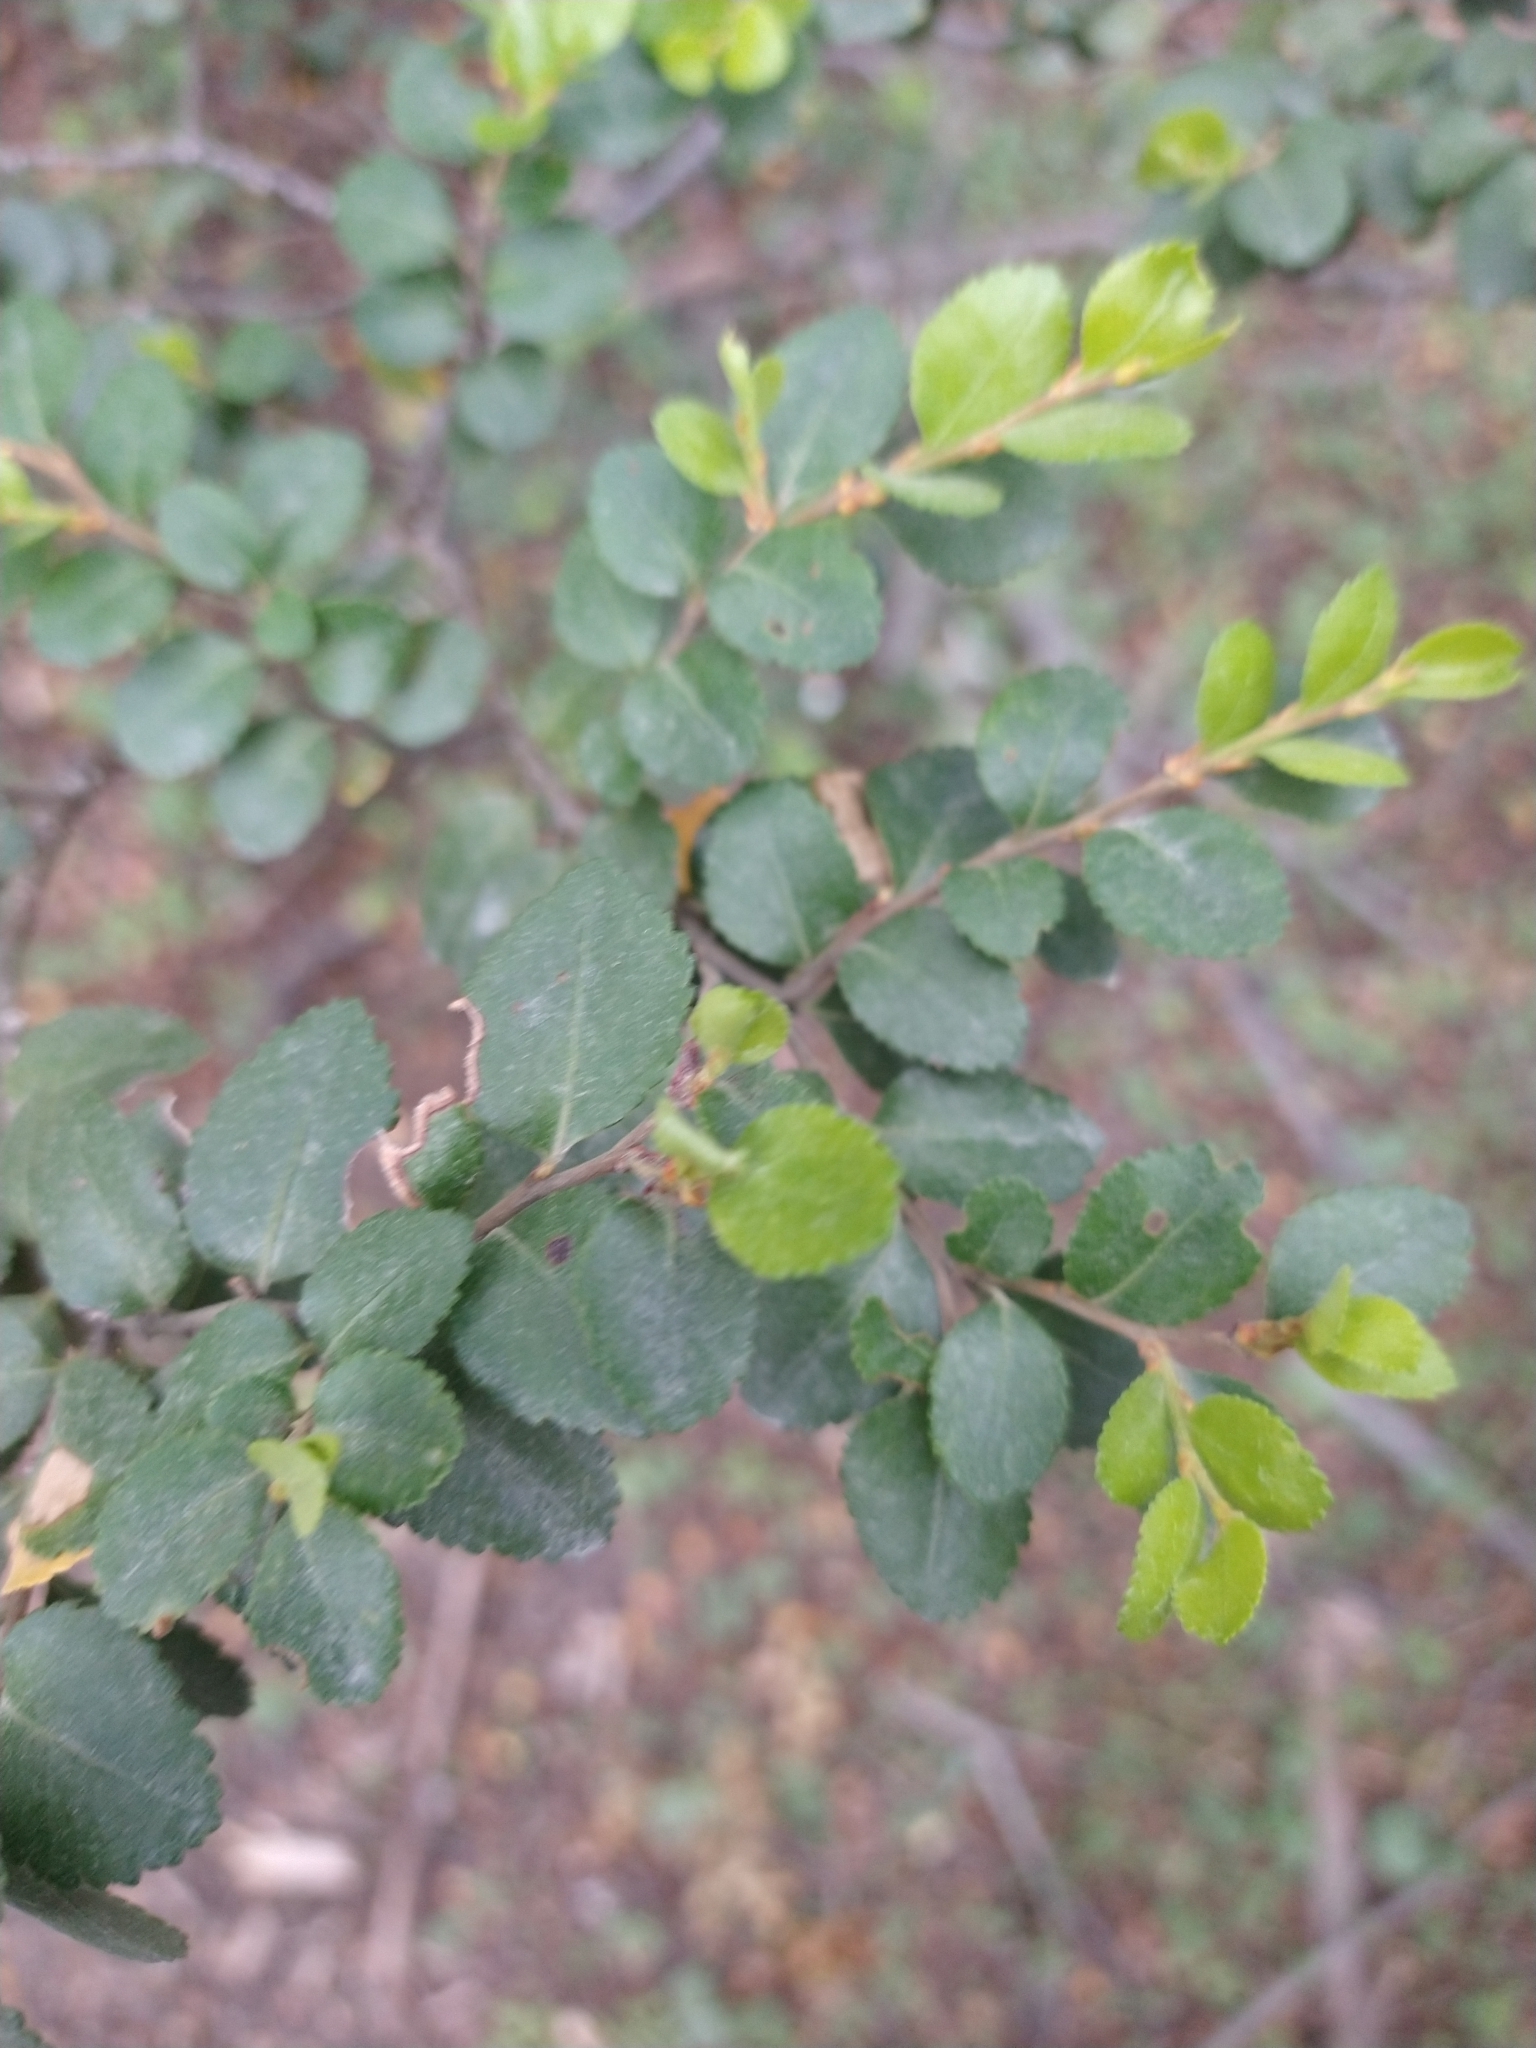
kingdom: Plantae
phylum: Tracheophyta
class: Magnoliopsida
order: Fagales
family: Nothofagaceae
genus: Nothofagus
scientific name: Nothofagus betuloides
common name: Magellan's beech
